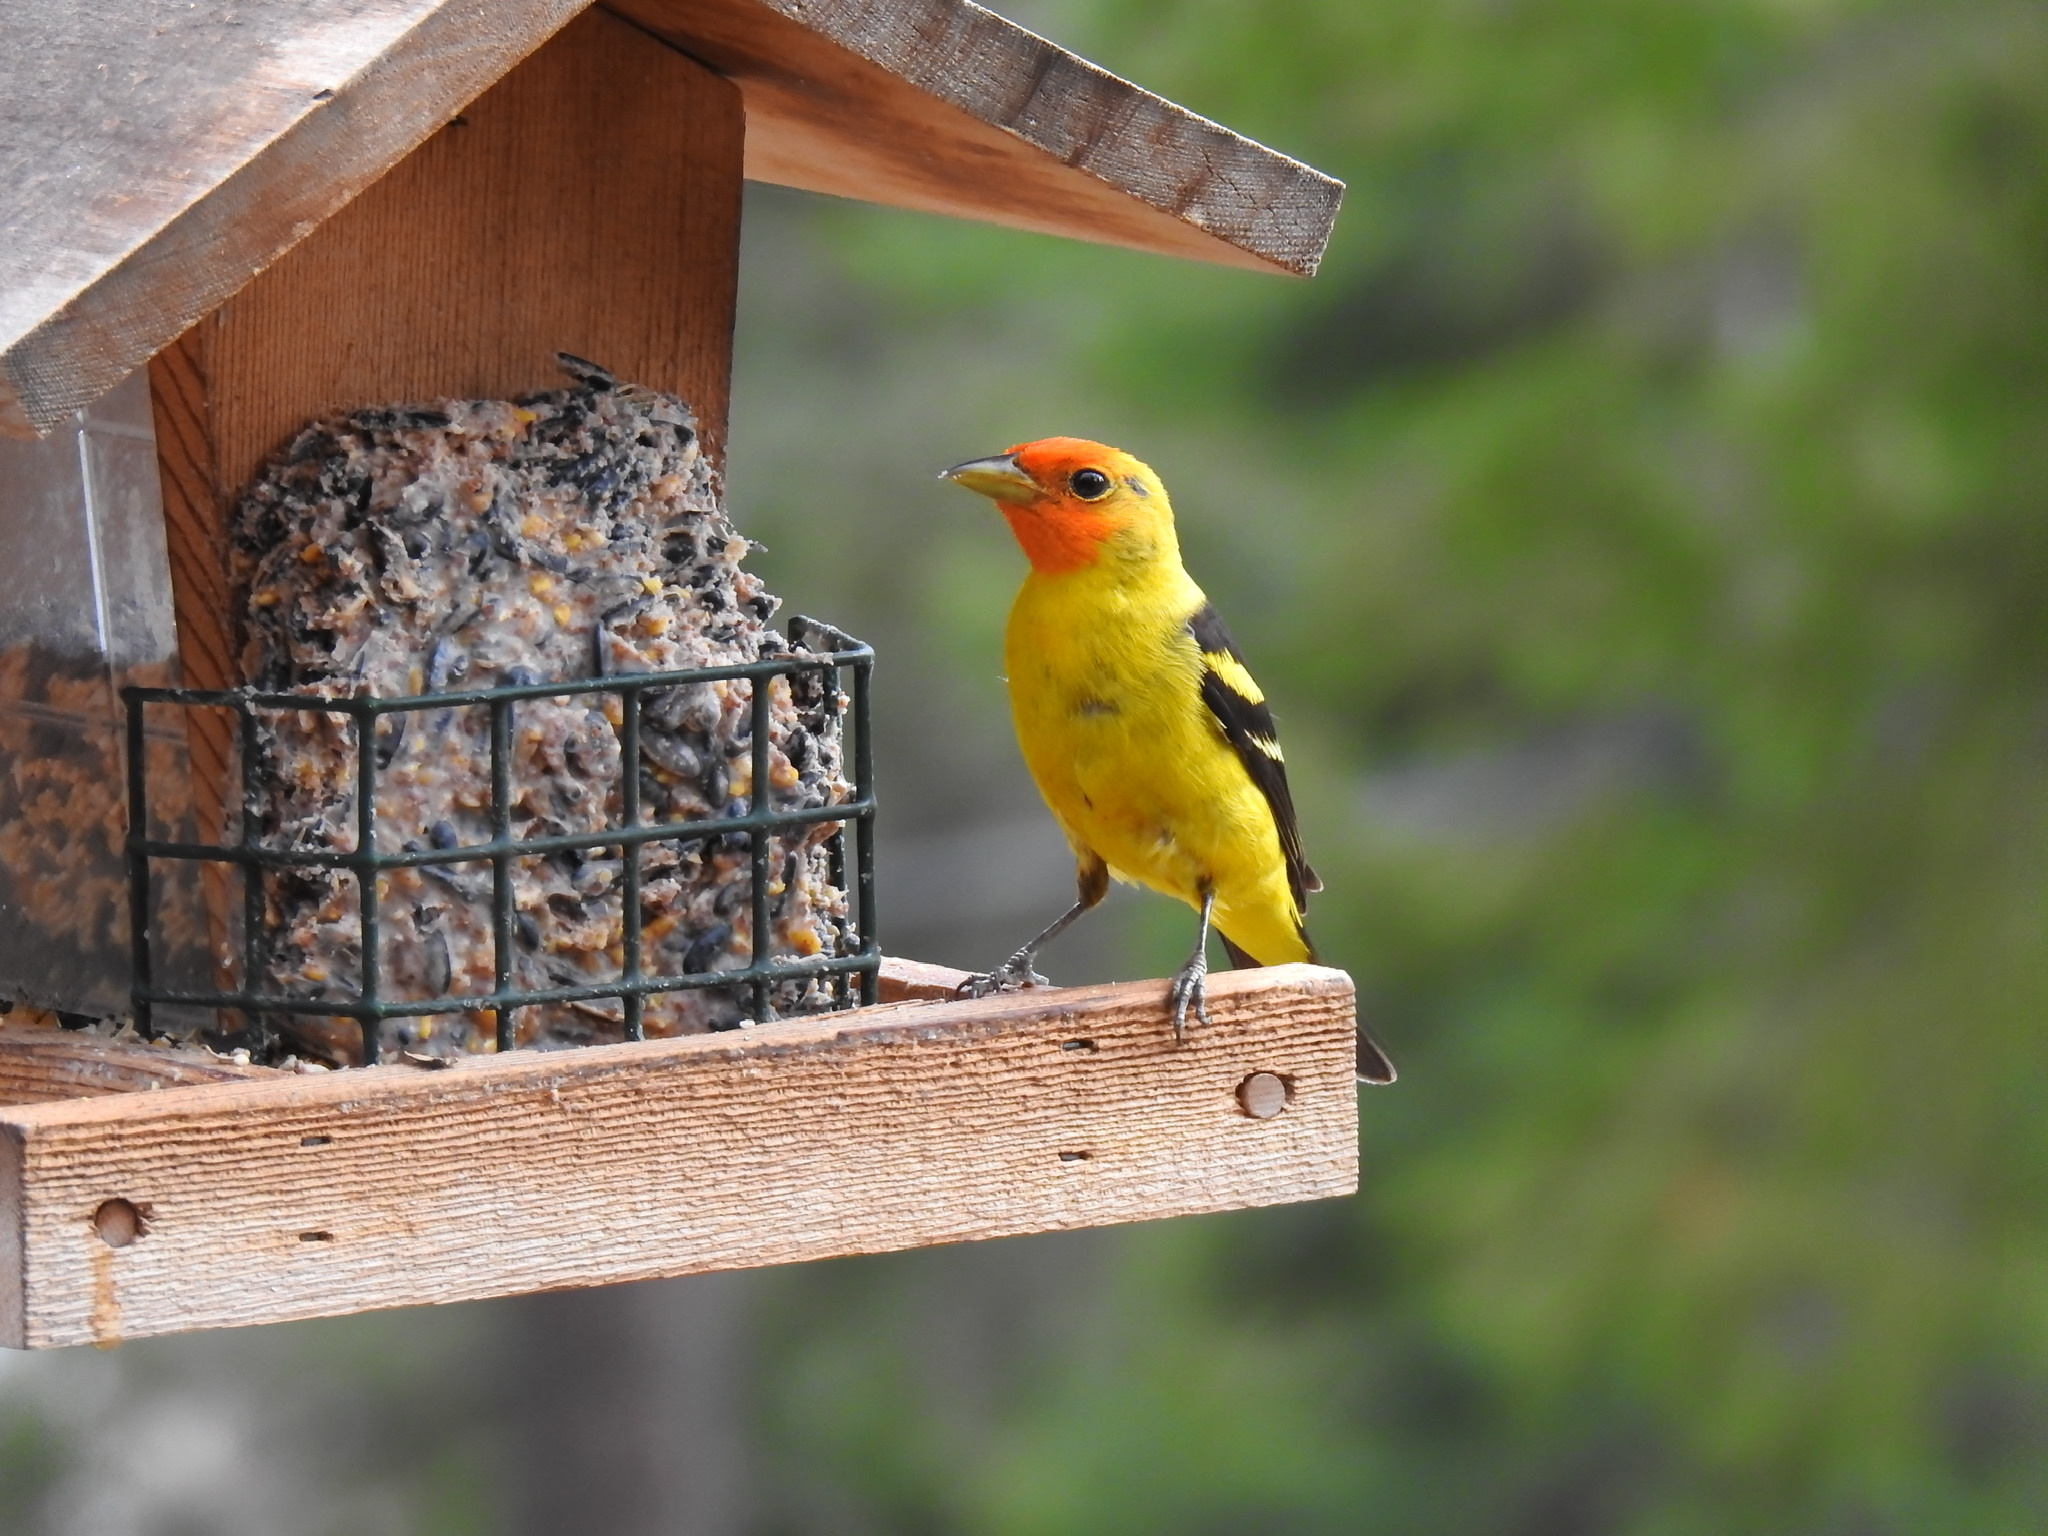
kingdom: Animalia
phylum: Chordata
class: Aves
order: Passeriformes
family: Cardinalidae
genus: Piranga
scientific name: Piranga ludoviciana
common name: Western tanager
